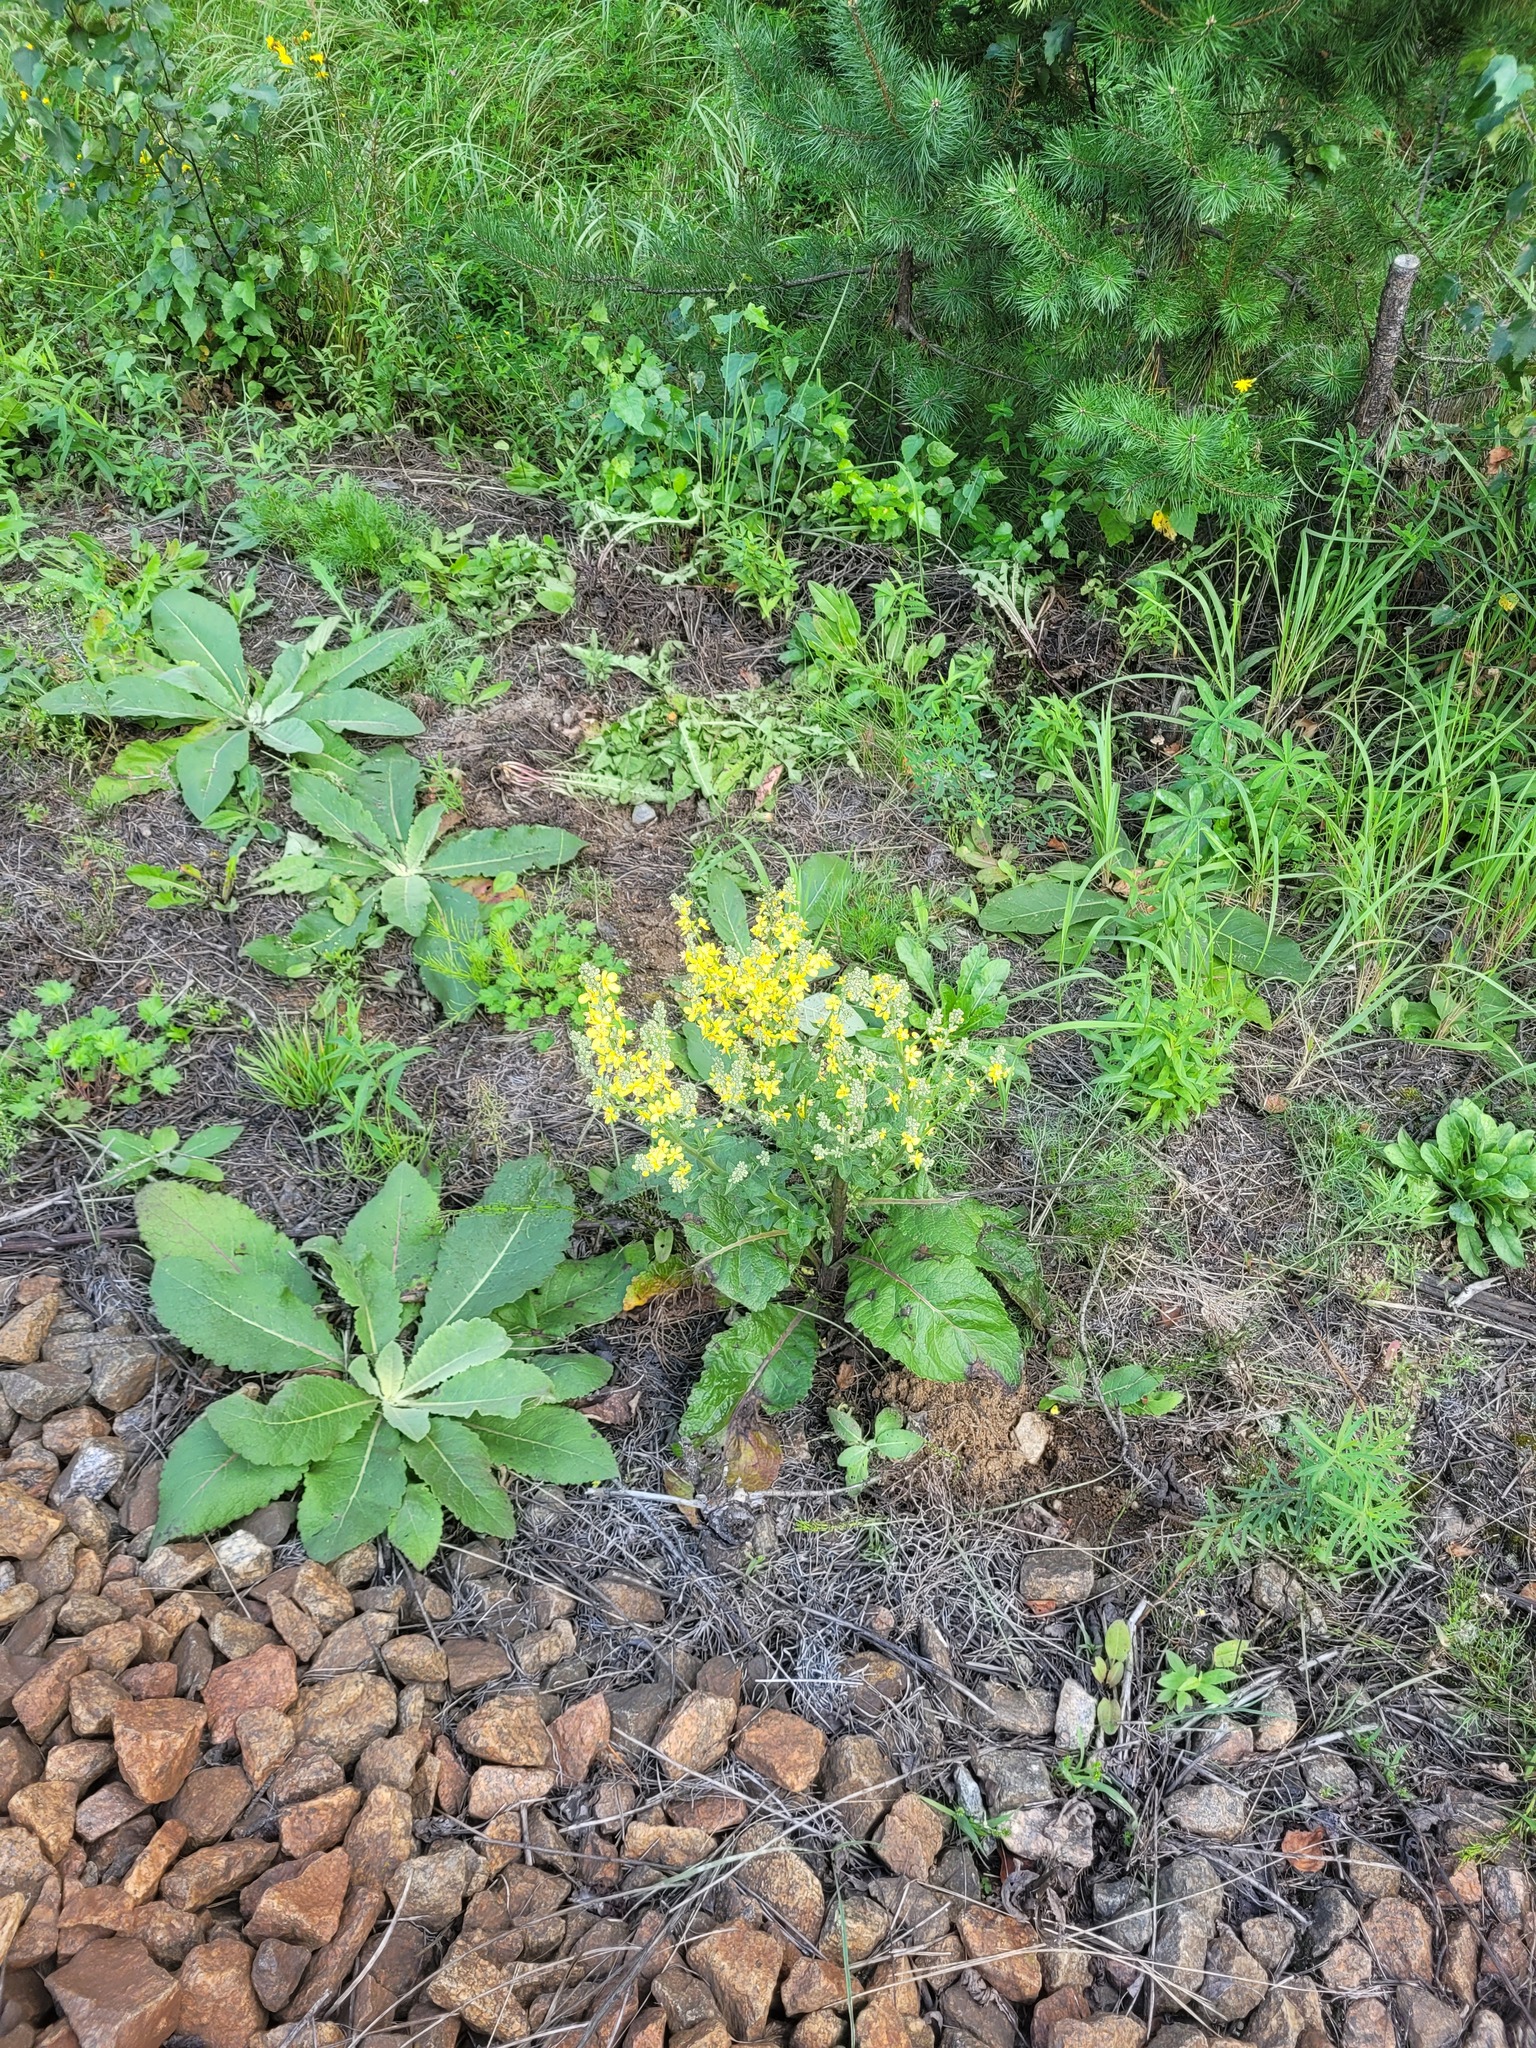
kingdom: Plantae
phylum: Tracheophyta
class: Magnoliopsida
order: Lamiales
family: Scrophulariaceae
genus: Verbascum
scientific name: Verbascum lychnitis
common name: White mullein
